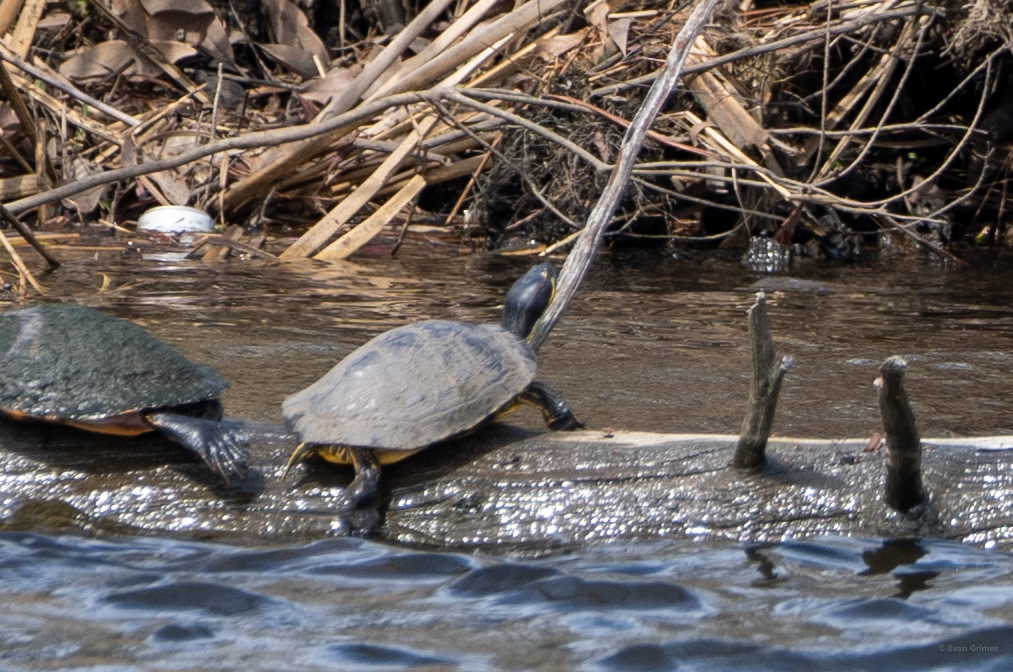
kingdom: Animalia
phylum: Chordata
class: Testudines
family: Emydidae
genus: Trachemys
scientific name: Trachemys scripta
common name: Slider
